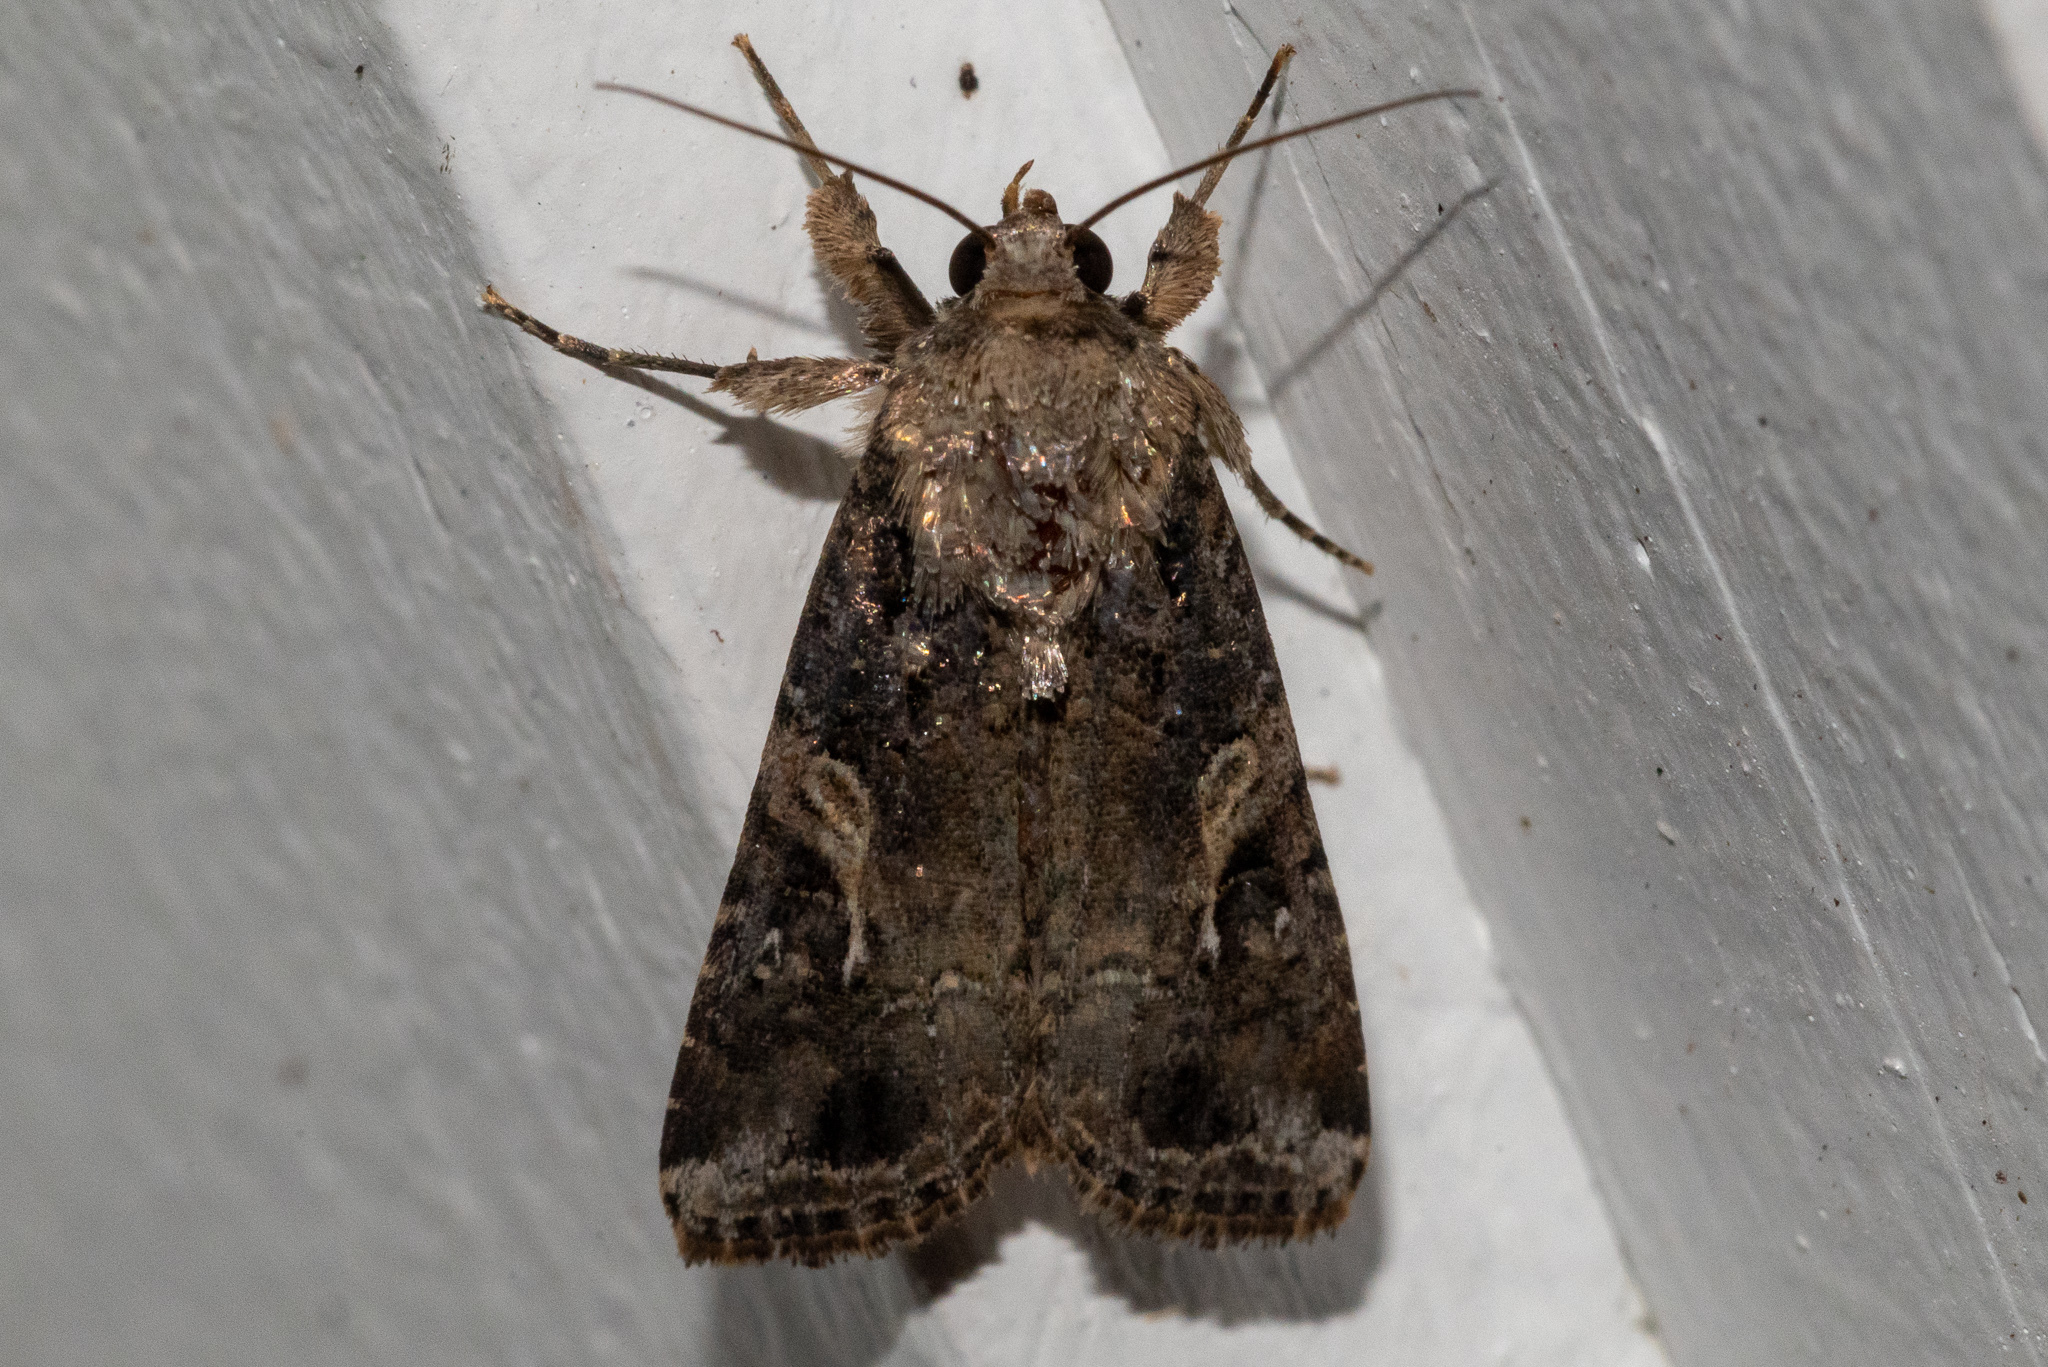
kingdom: Animalia
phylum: Arthropoda
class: Insecta
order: Lepidoptera
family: Noctuidae
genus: Spodoptera
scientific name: Spodoptera frugiperda
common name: Fall armyworm
